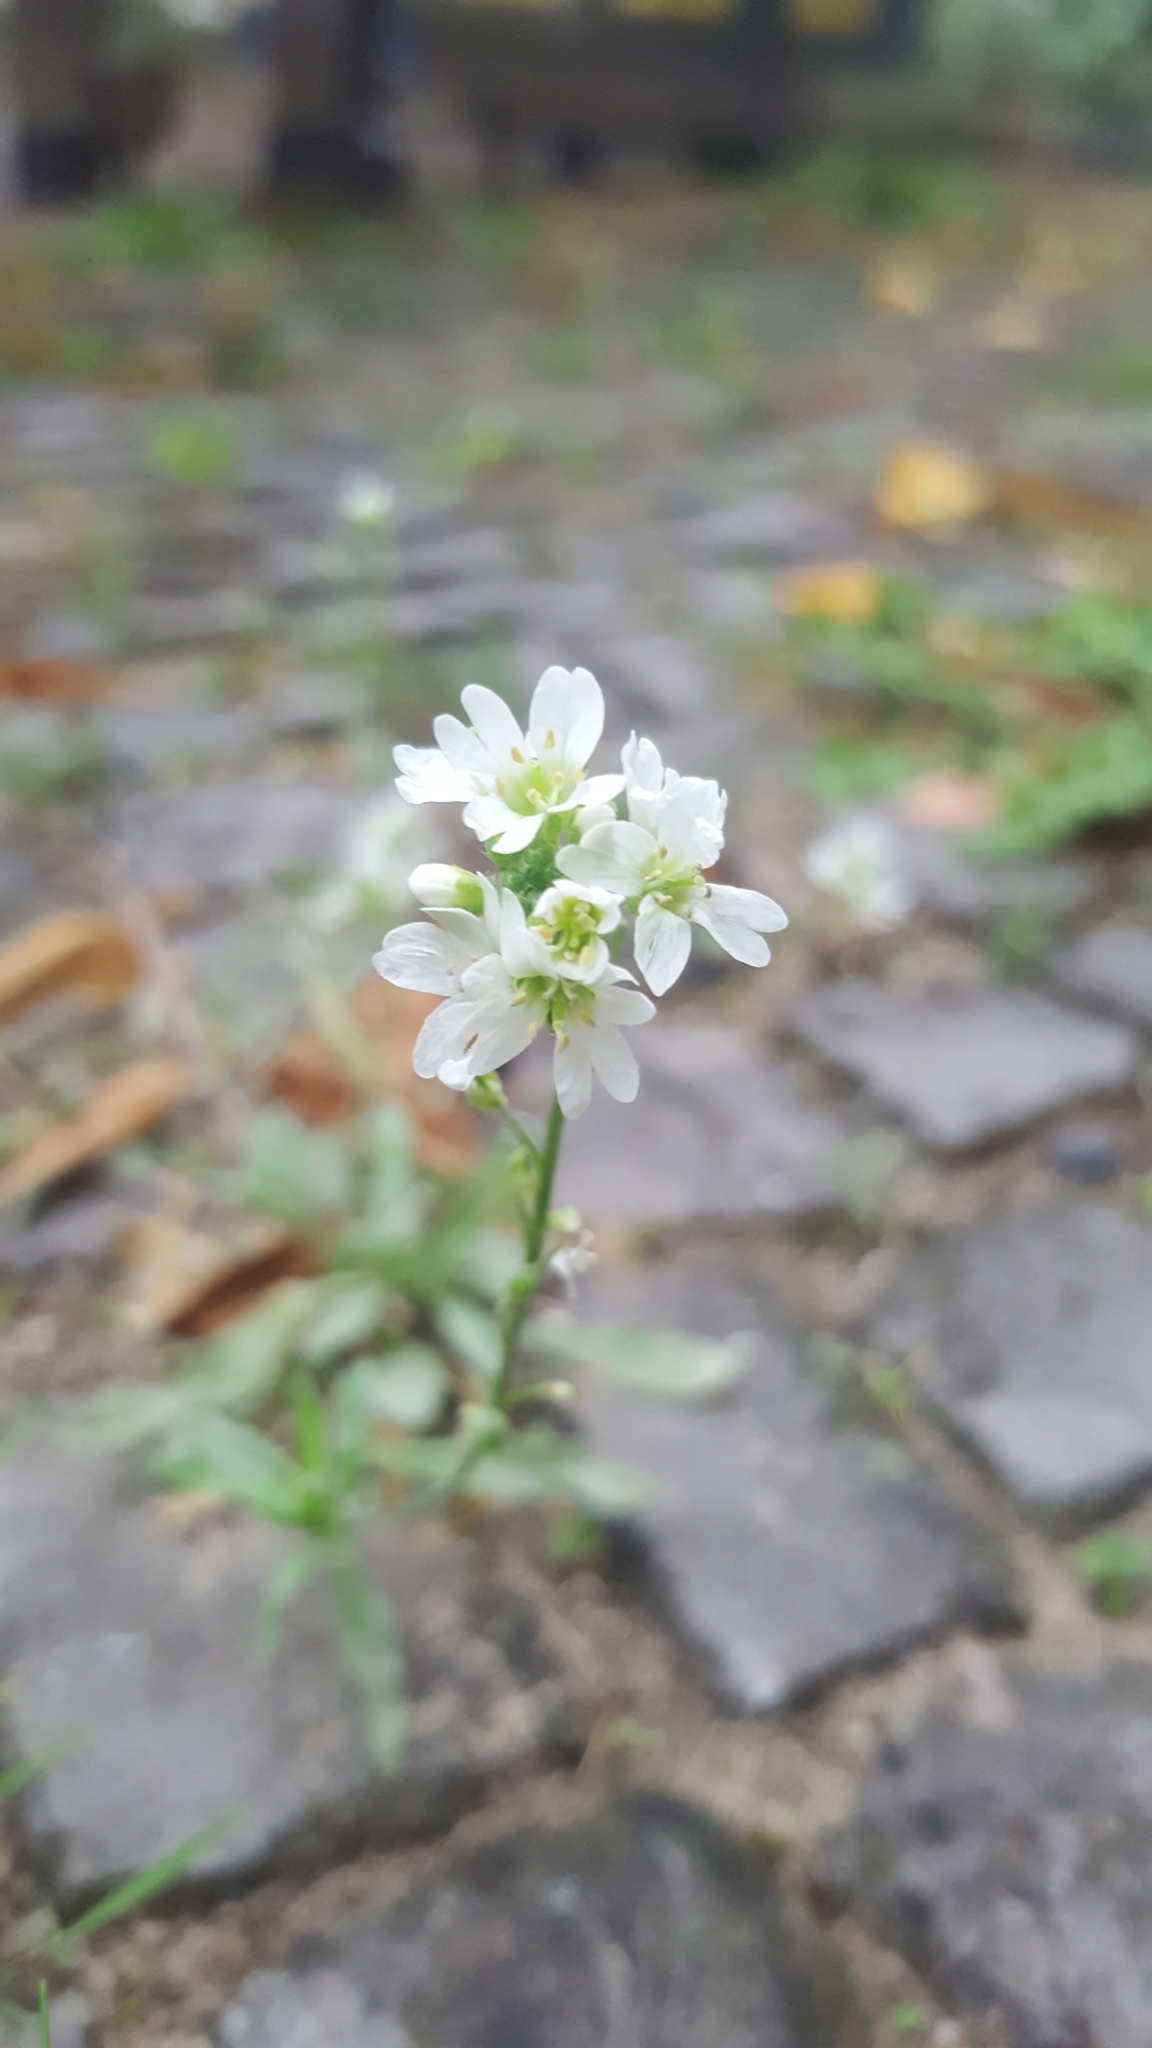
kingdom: Plantae
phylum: Tracheophyta
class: Magnoliopsida
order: Brassicales
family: Brassicaceae
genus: Berteroa
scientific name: Berteroa incana
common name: Hoary alison
